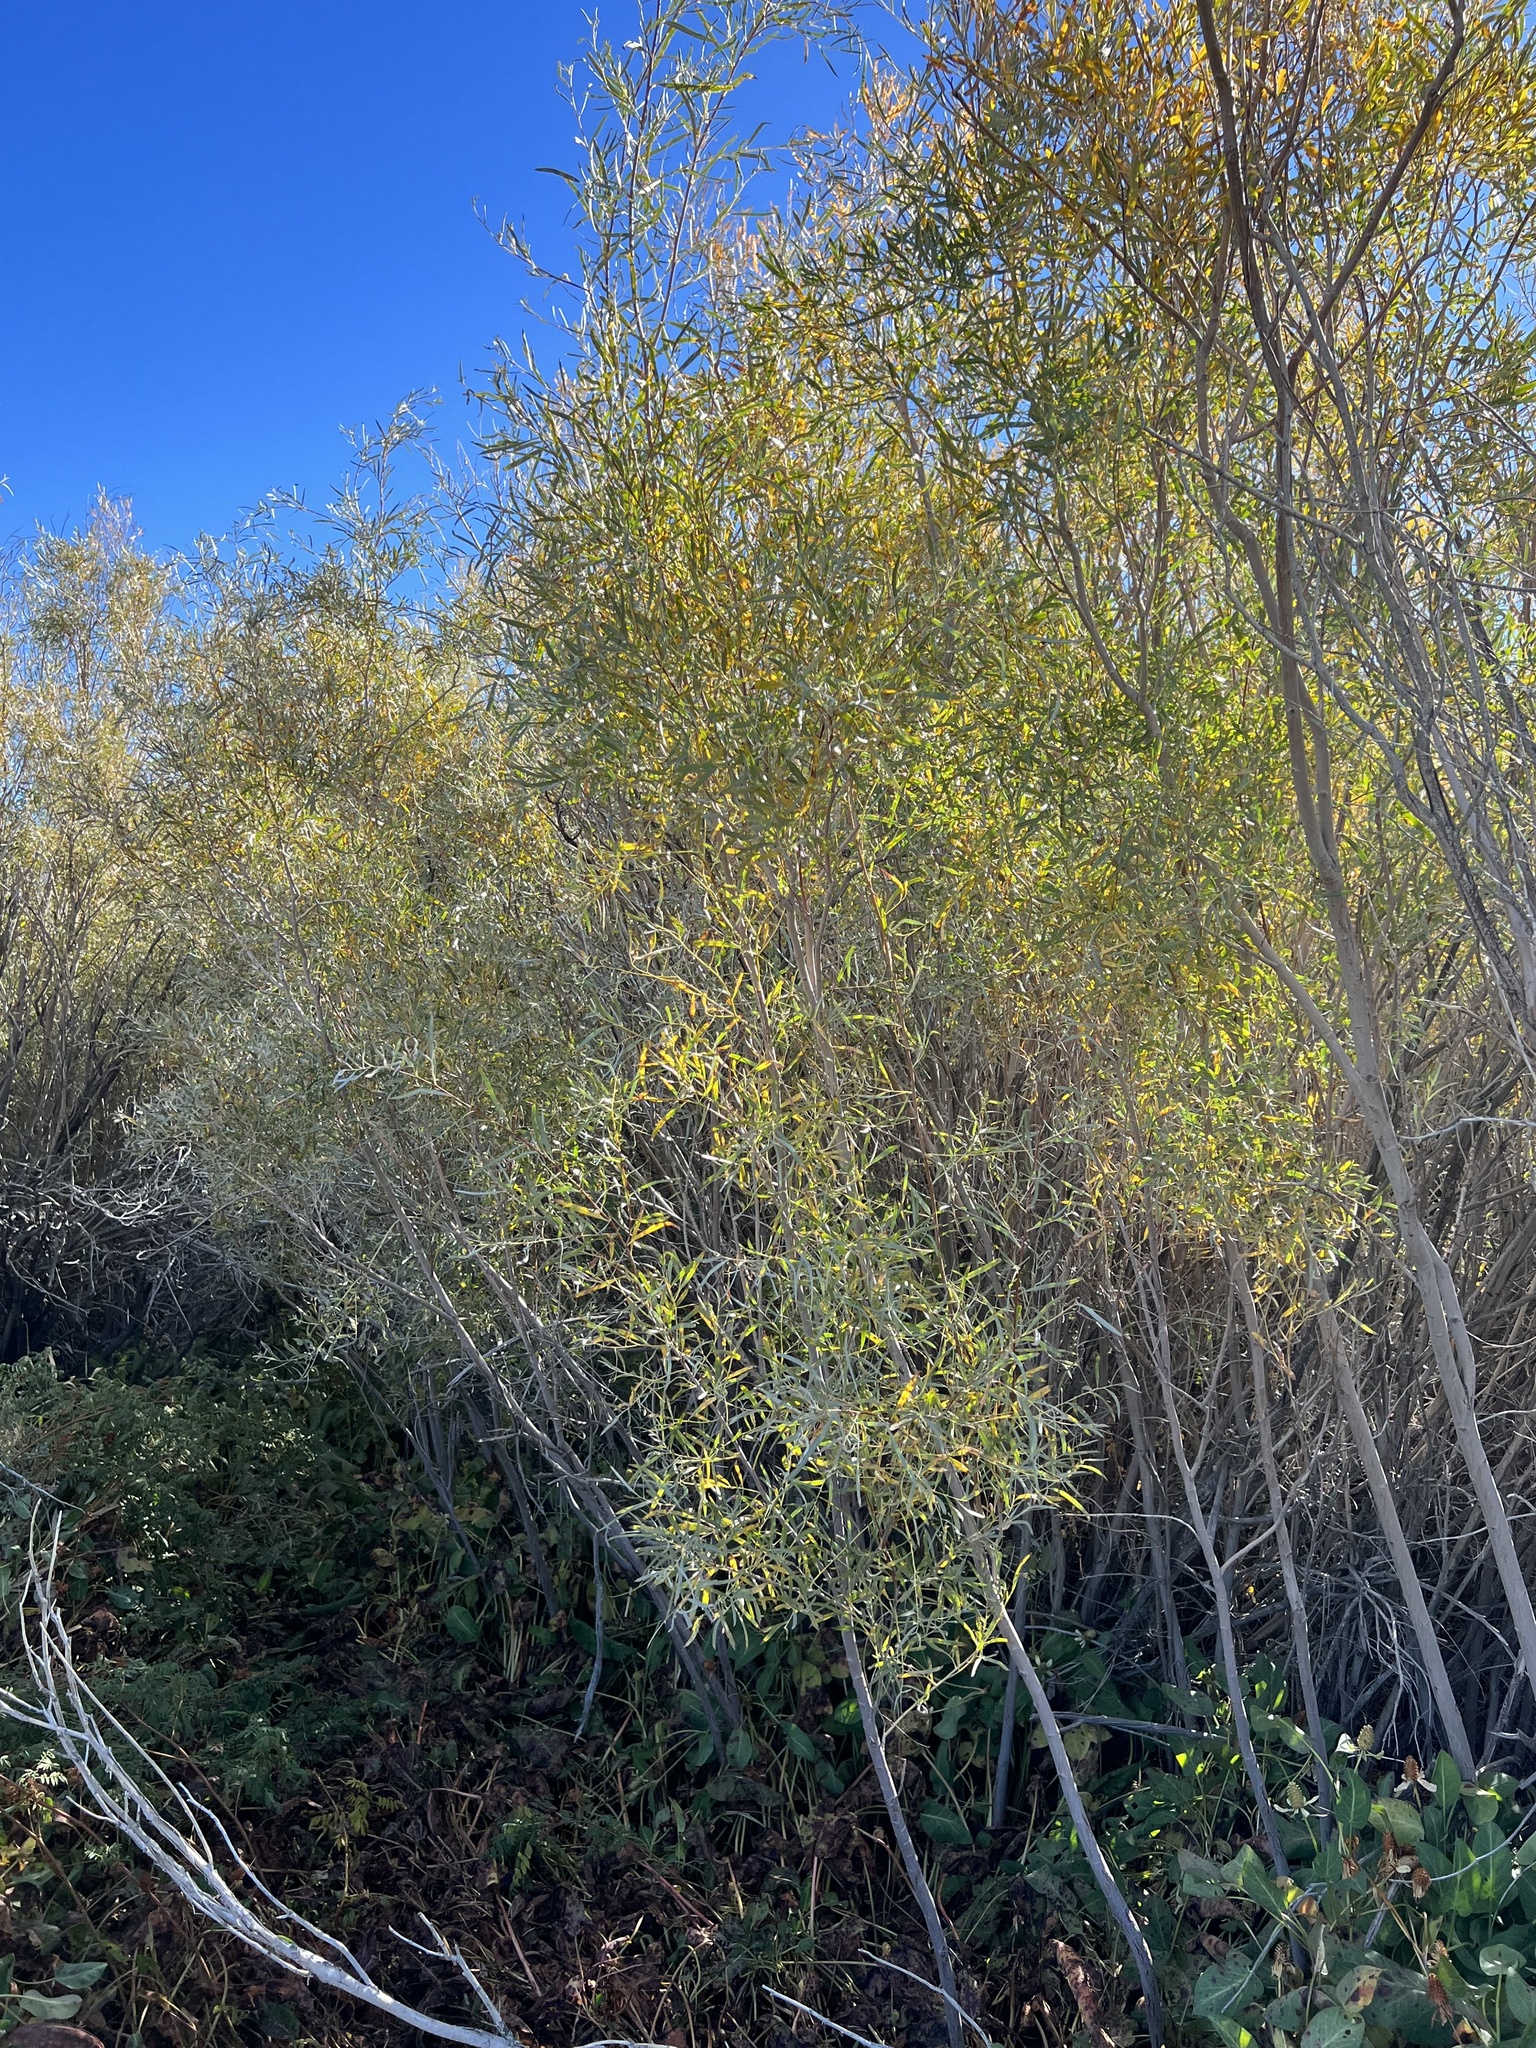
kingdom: Plantae
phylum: Tracheophyta
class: Magnoliopsida
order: Malpighiales
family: Salicaceae
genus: Salix
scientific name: Salix exigua
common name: Coyote willow
